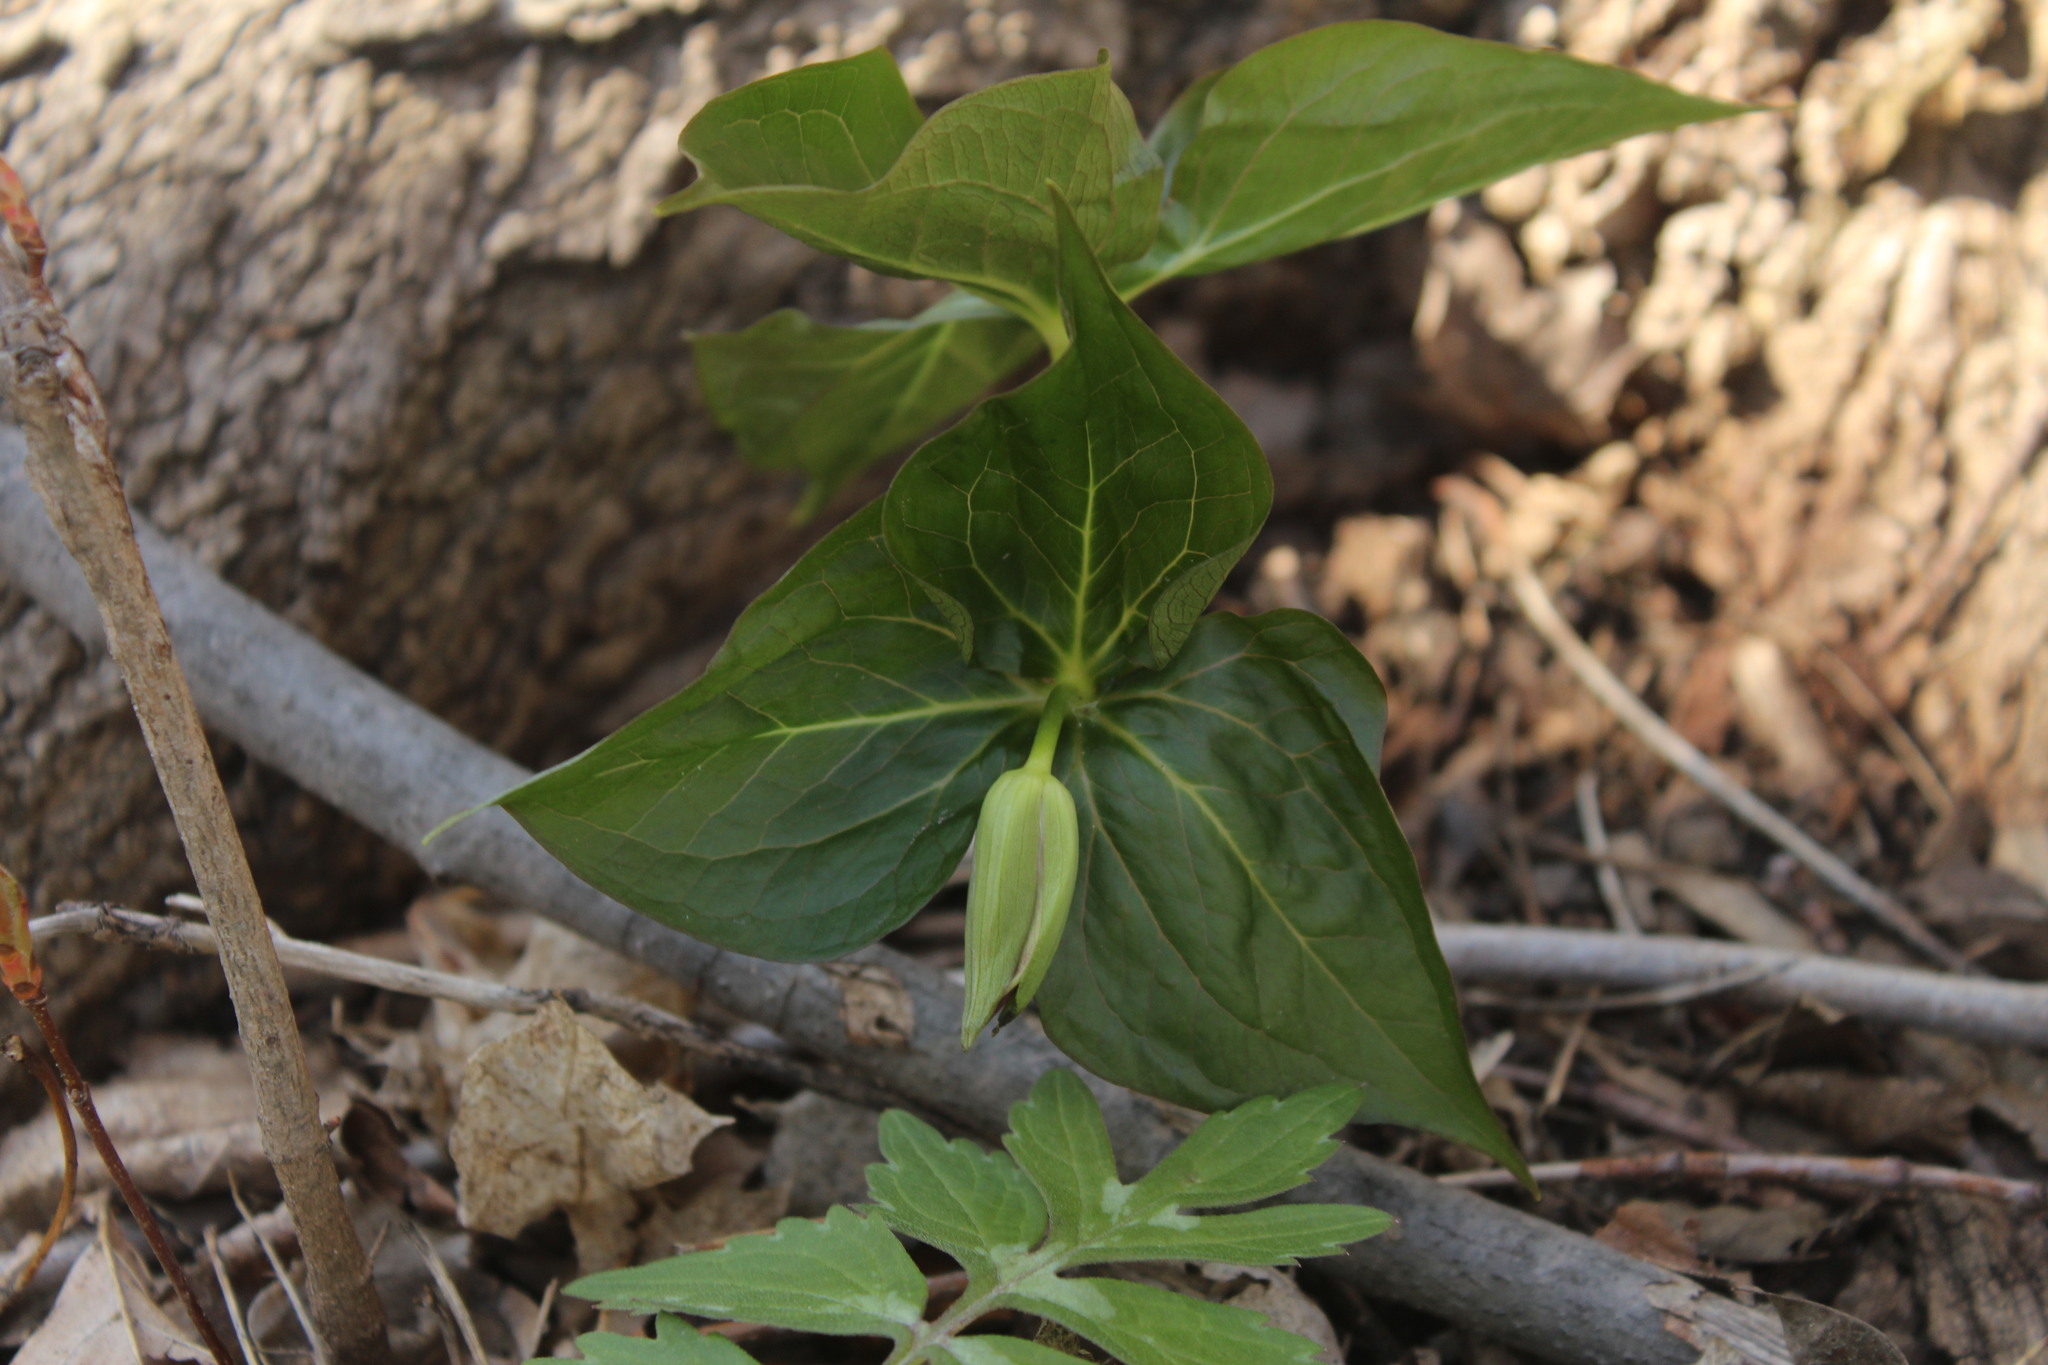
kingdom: Plantae
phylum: Tracheophyta
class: Liliopsida
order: Liliales
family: Melanthiaceae
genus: Trillium
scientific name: Trillium erectum
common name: Purple trillium
